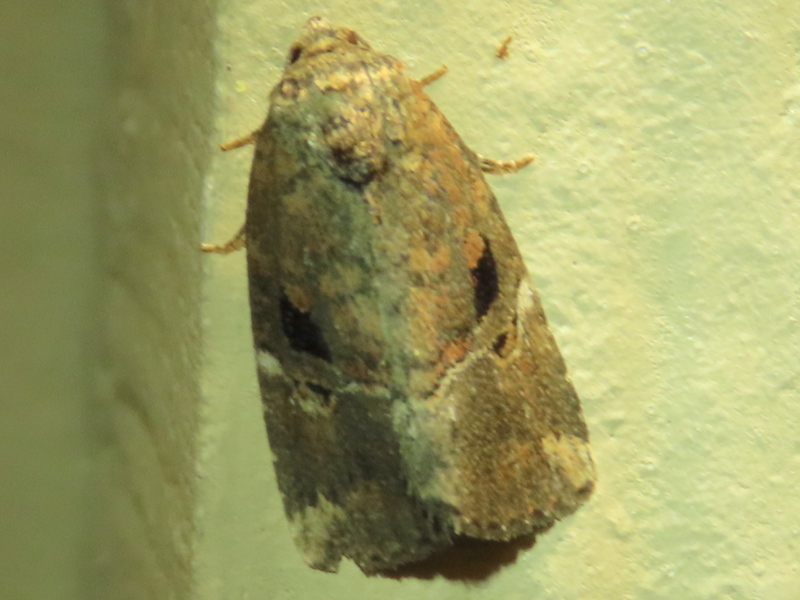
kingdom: Animalia
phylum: Arthropoda
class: Insecta
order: Lepidoptera
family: Noctuidae
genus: Elaphria
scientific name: Elaphria versicolor
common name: Fir harlequin
